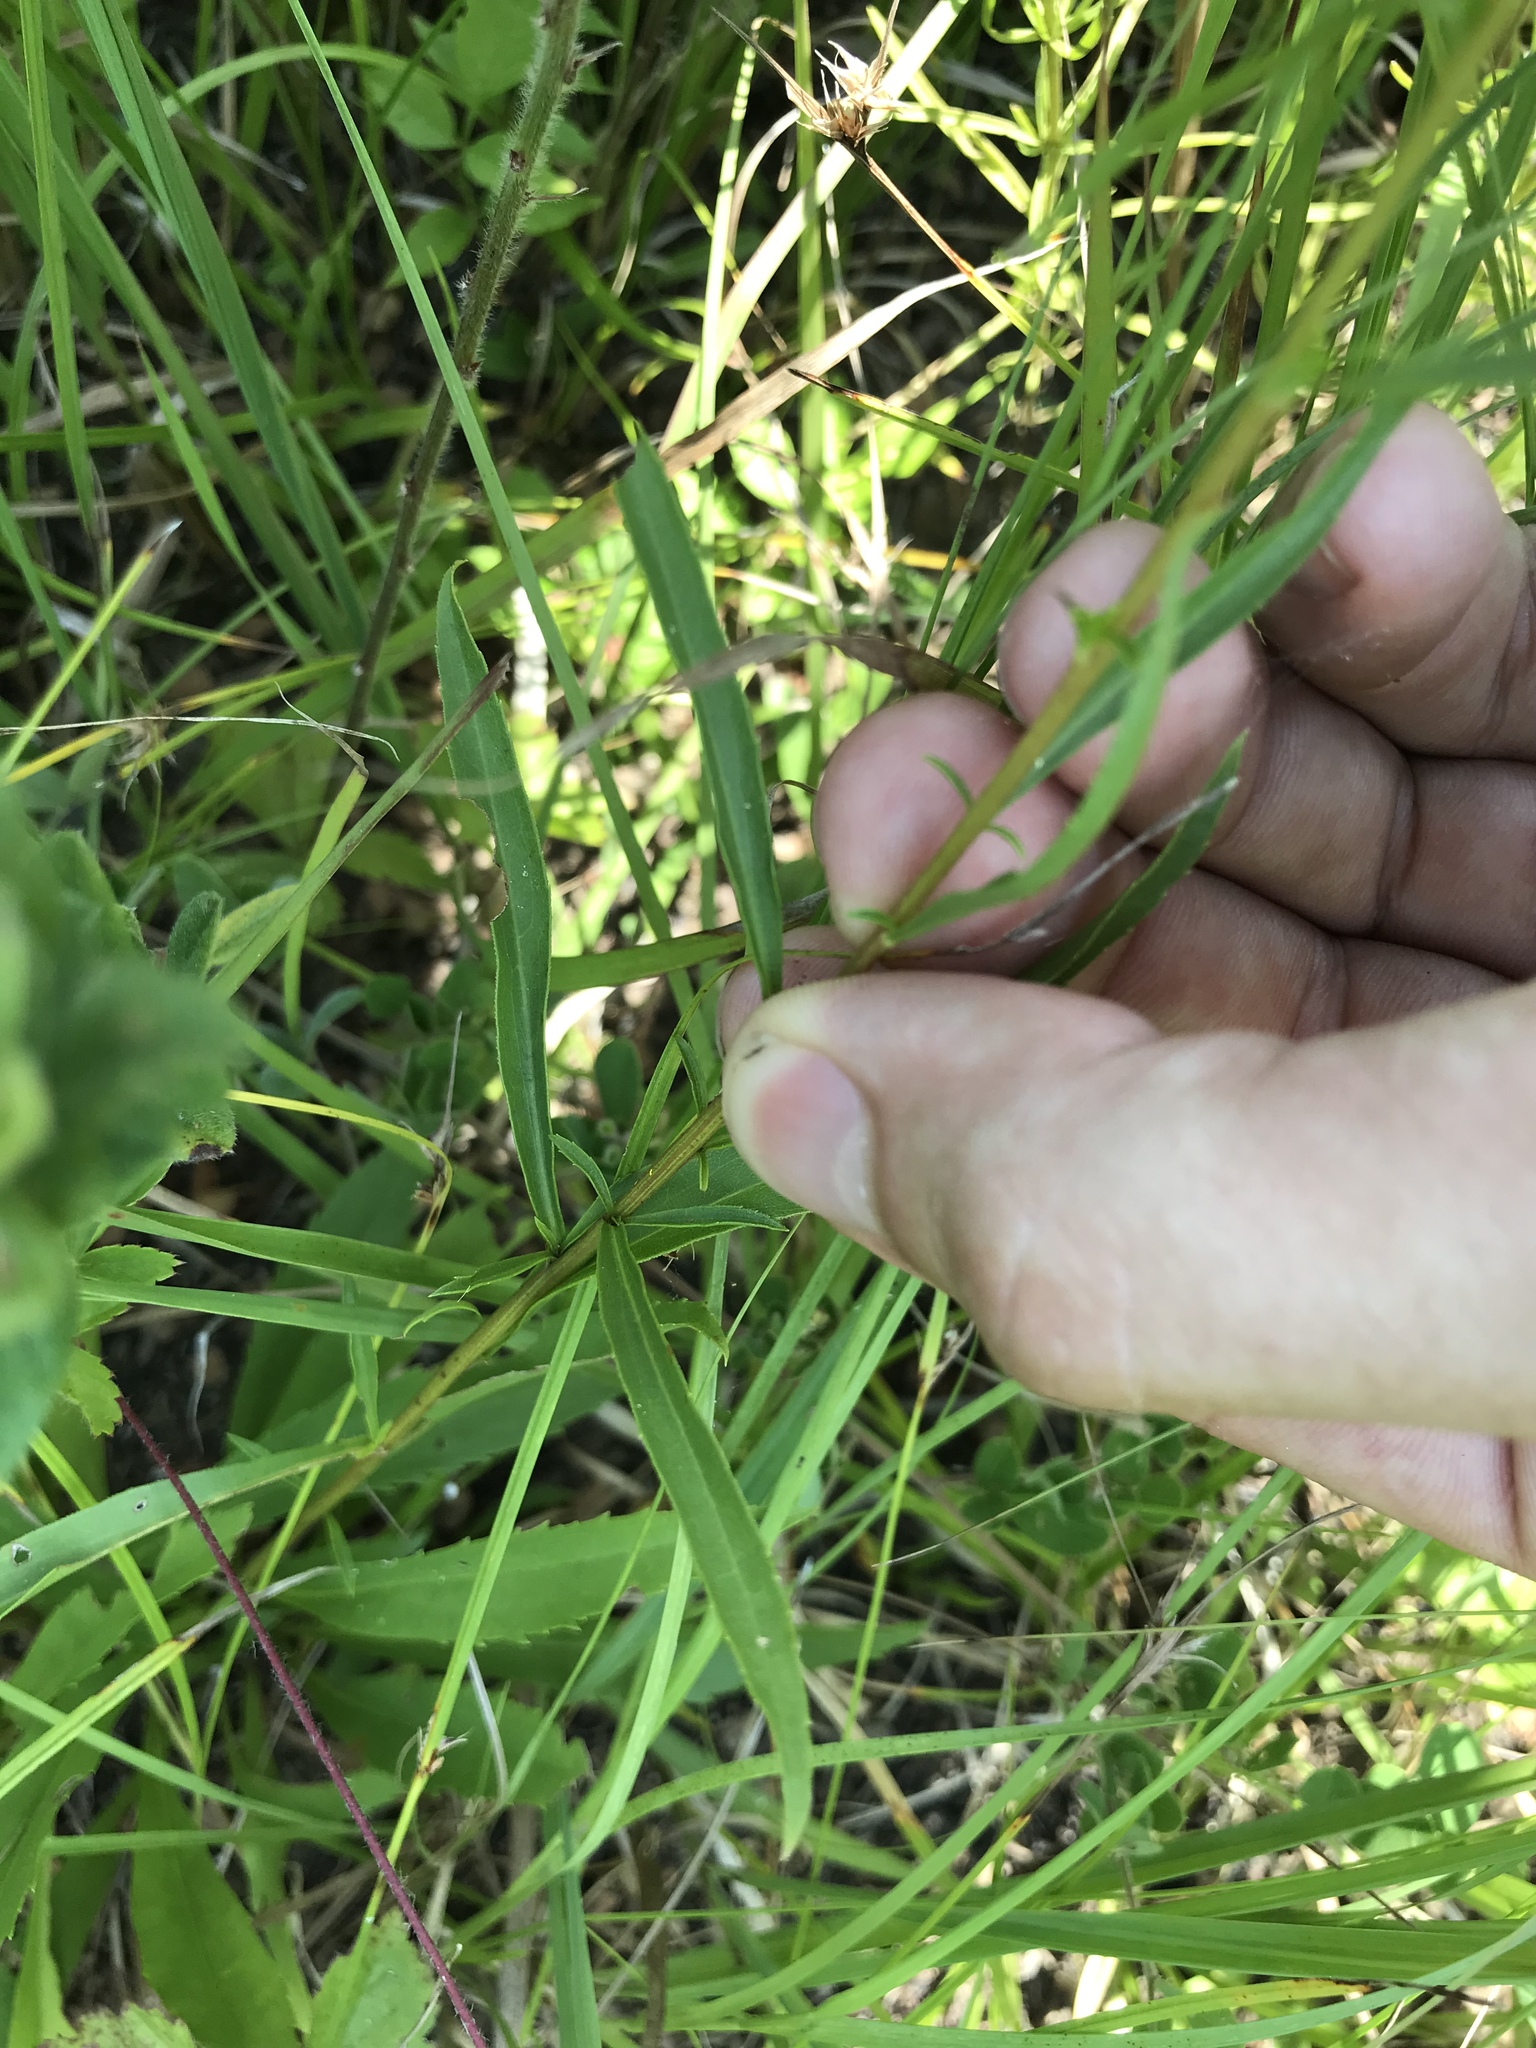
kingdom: Plantae
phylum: Tracheophyta
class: Magnoliopsida
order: Asterales
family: Asteraceae
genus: Solidago
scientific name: Solidago pinetorum
